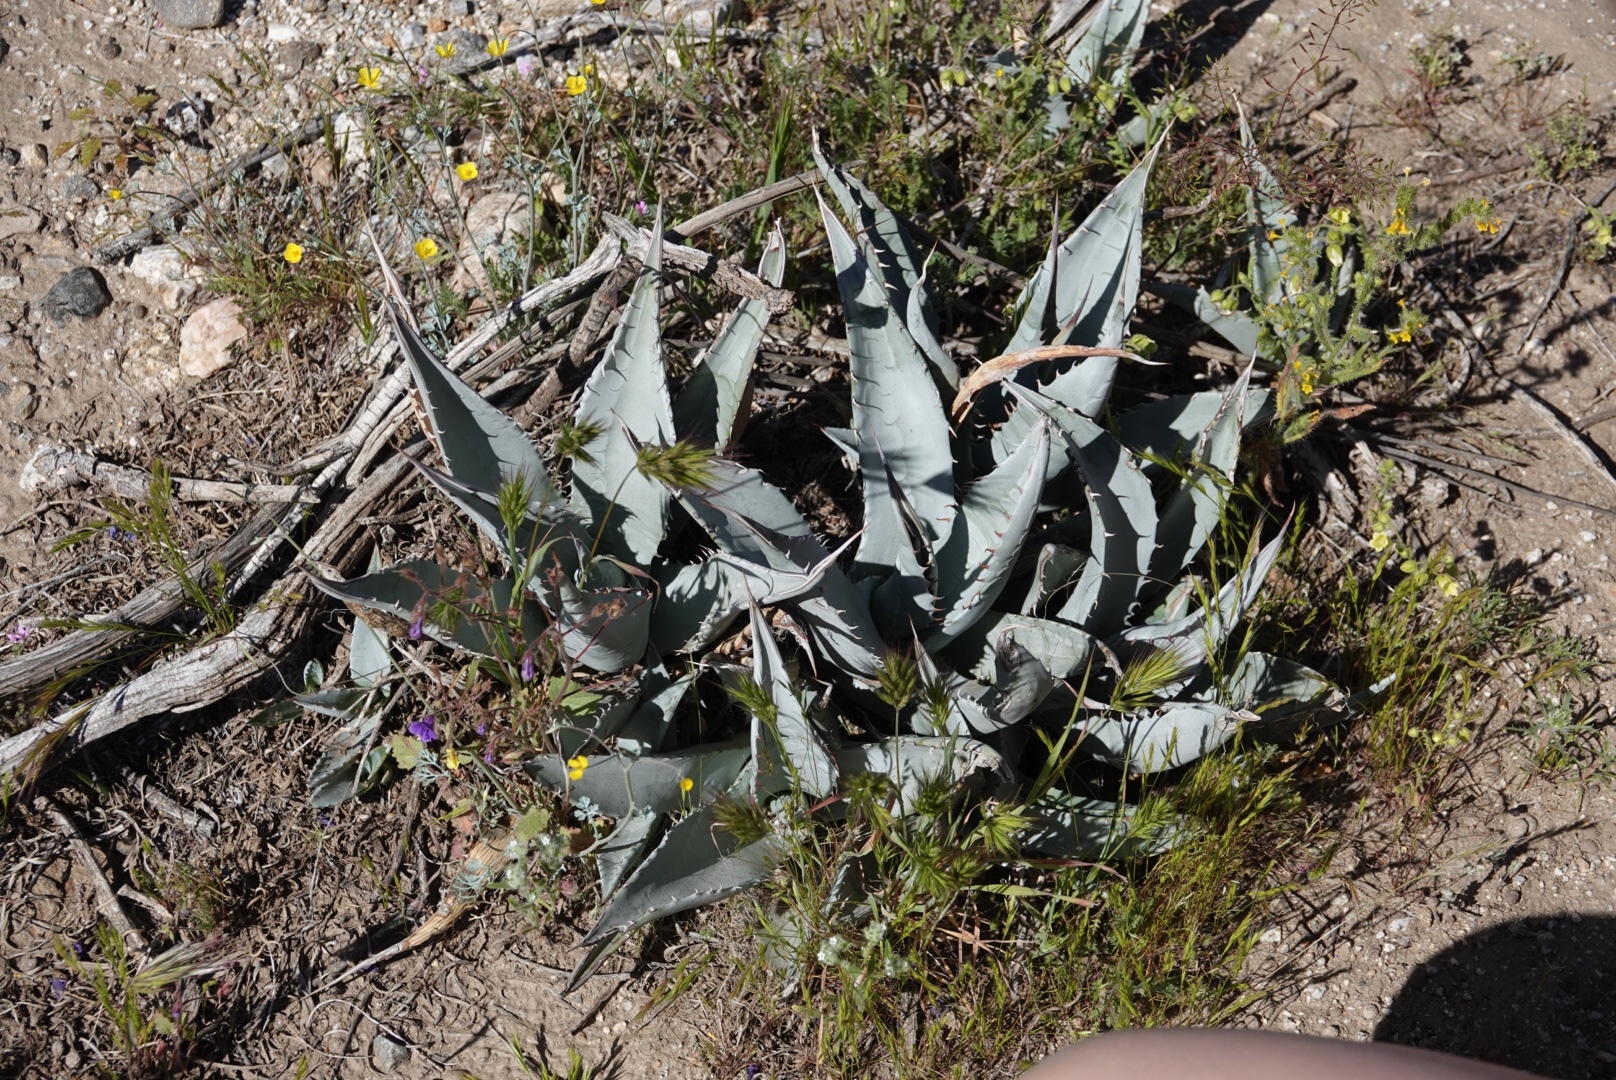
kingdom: Plantae
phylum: Tracheophyta
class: Liliopsida
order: Asparagales
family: Asparagaceae
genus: Agave
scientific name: Agave deserti
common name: Desert agave
